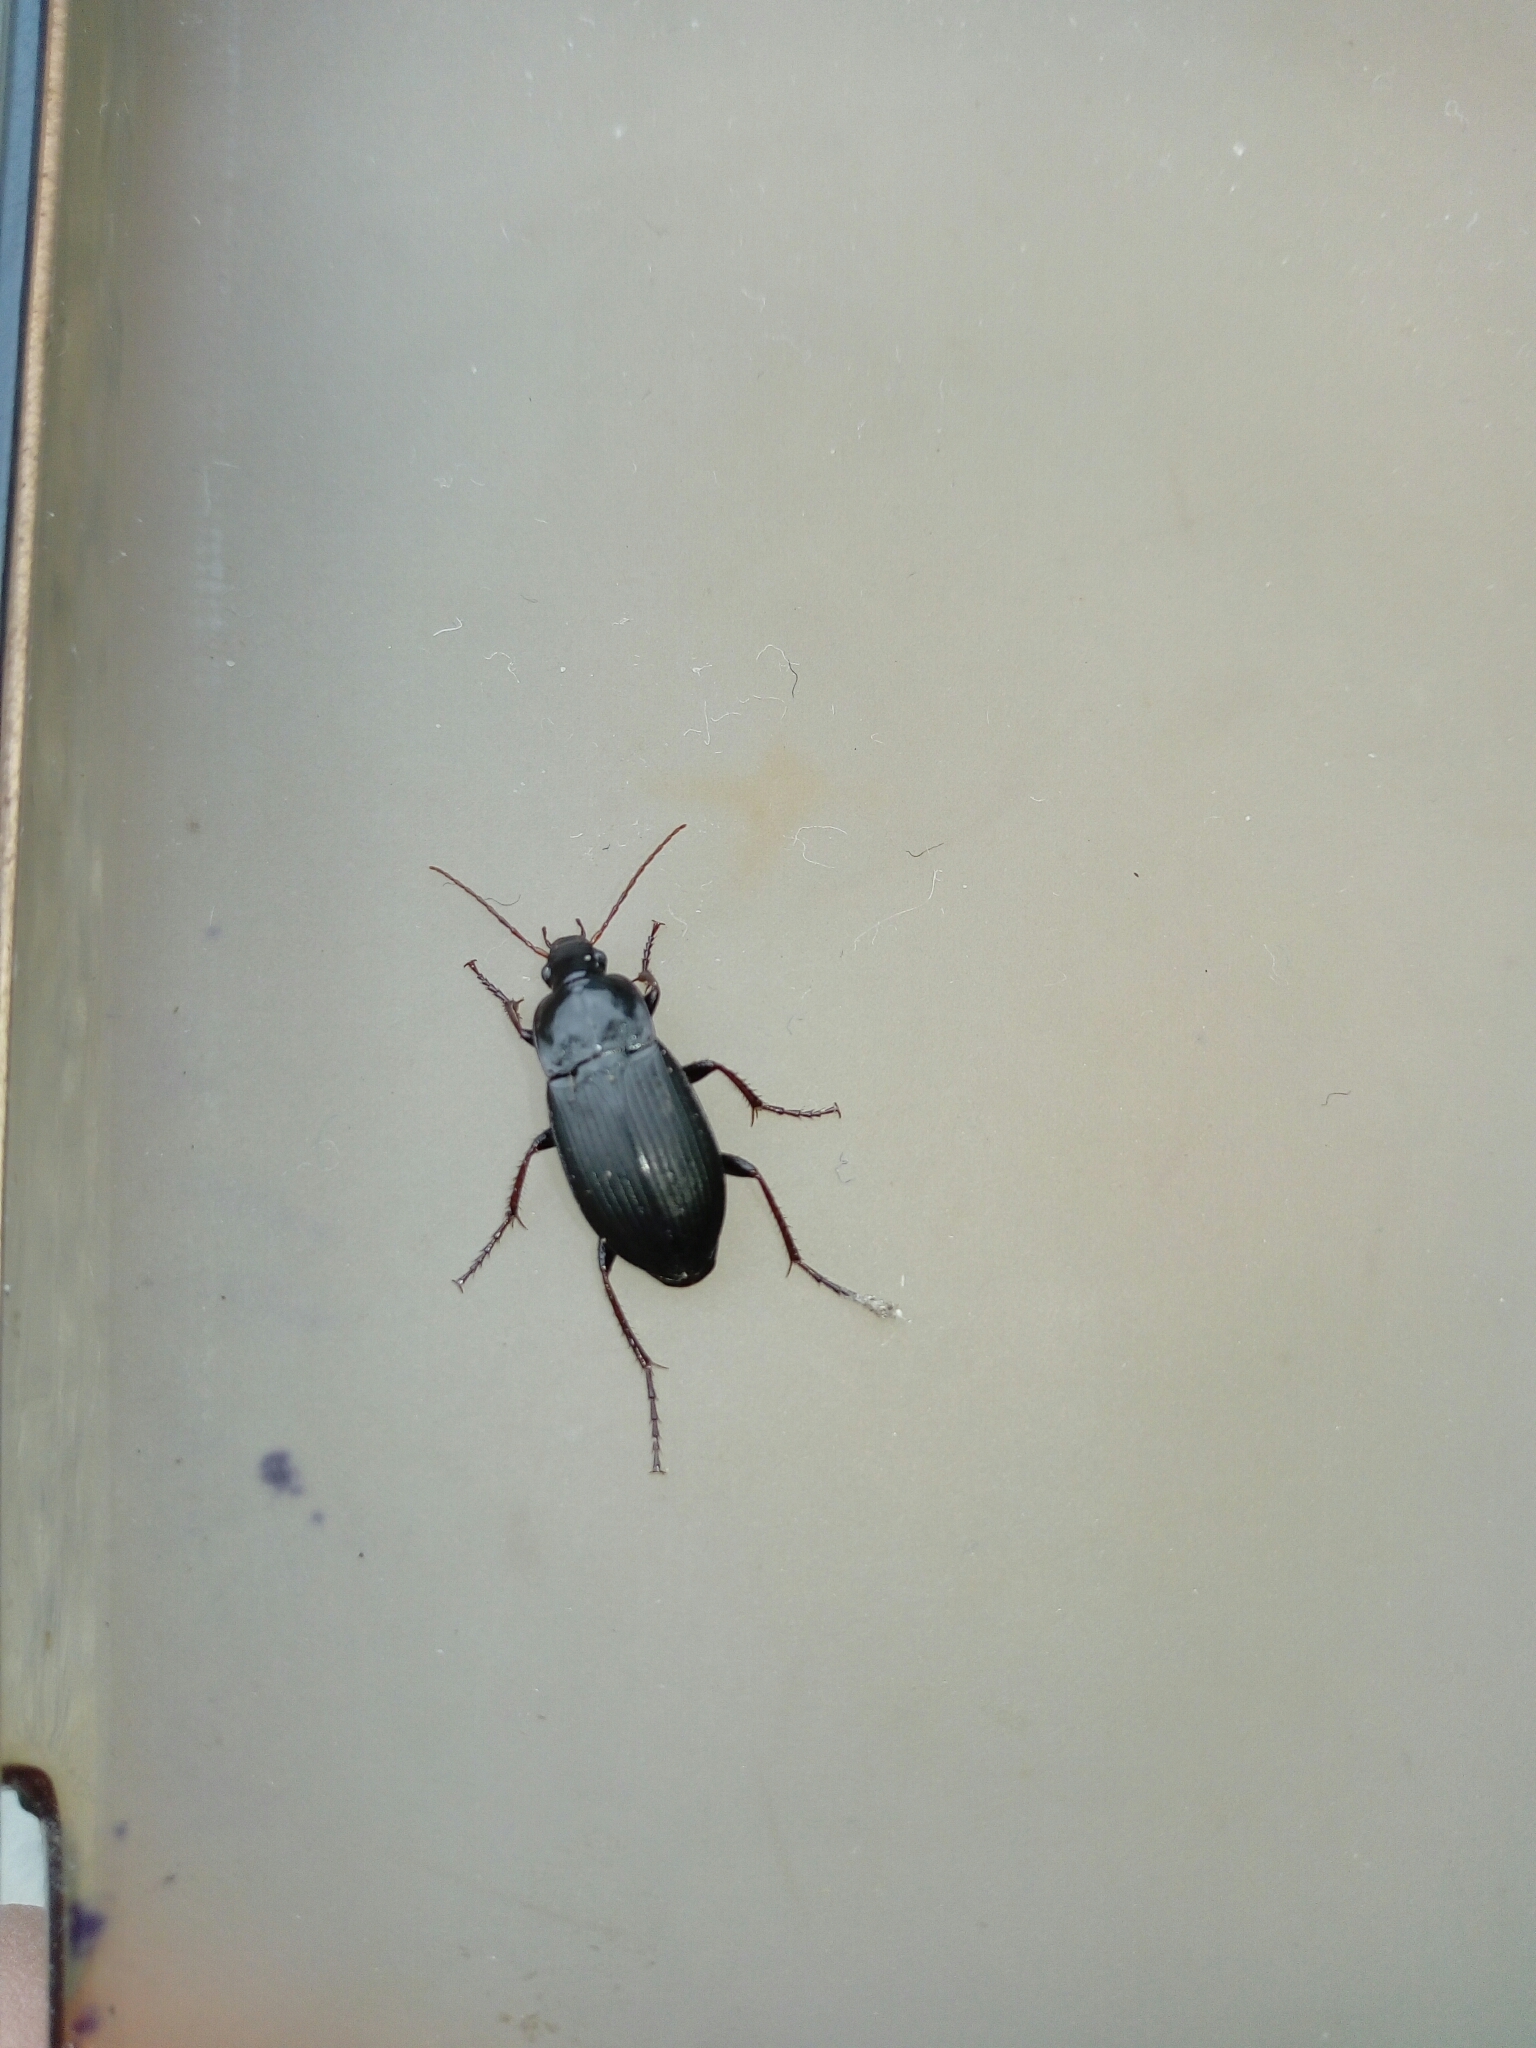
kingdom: Animalia
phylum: Arthropoda
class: Insecta
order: Coleoptera
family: Carabidae
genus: Calathus
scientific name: Calathus fuscipes
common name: Dark-footed harp ground beetle
